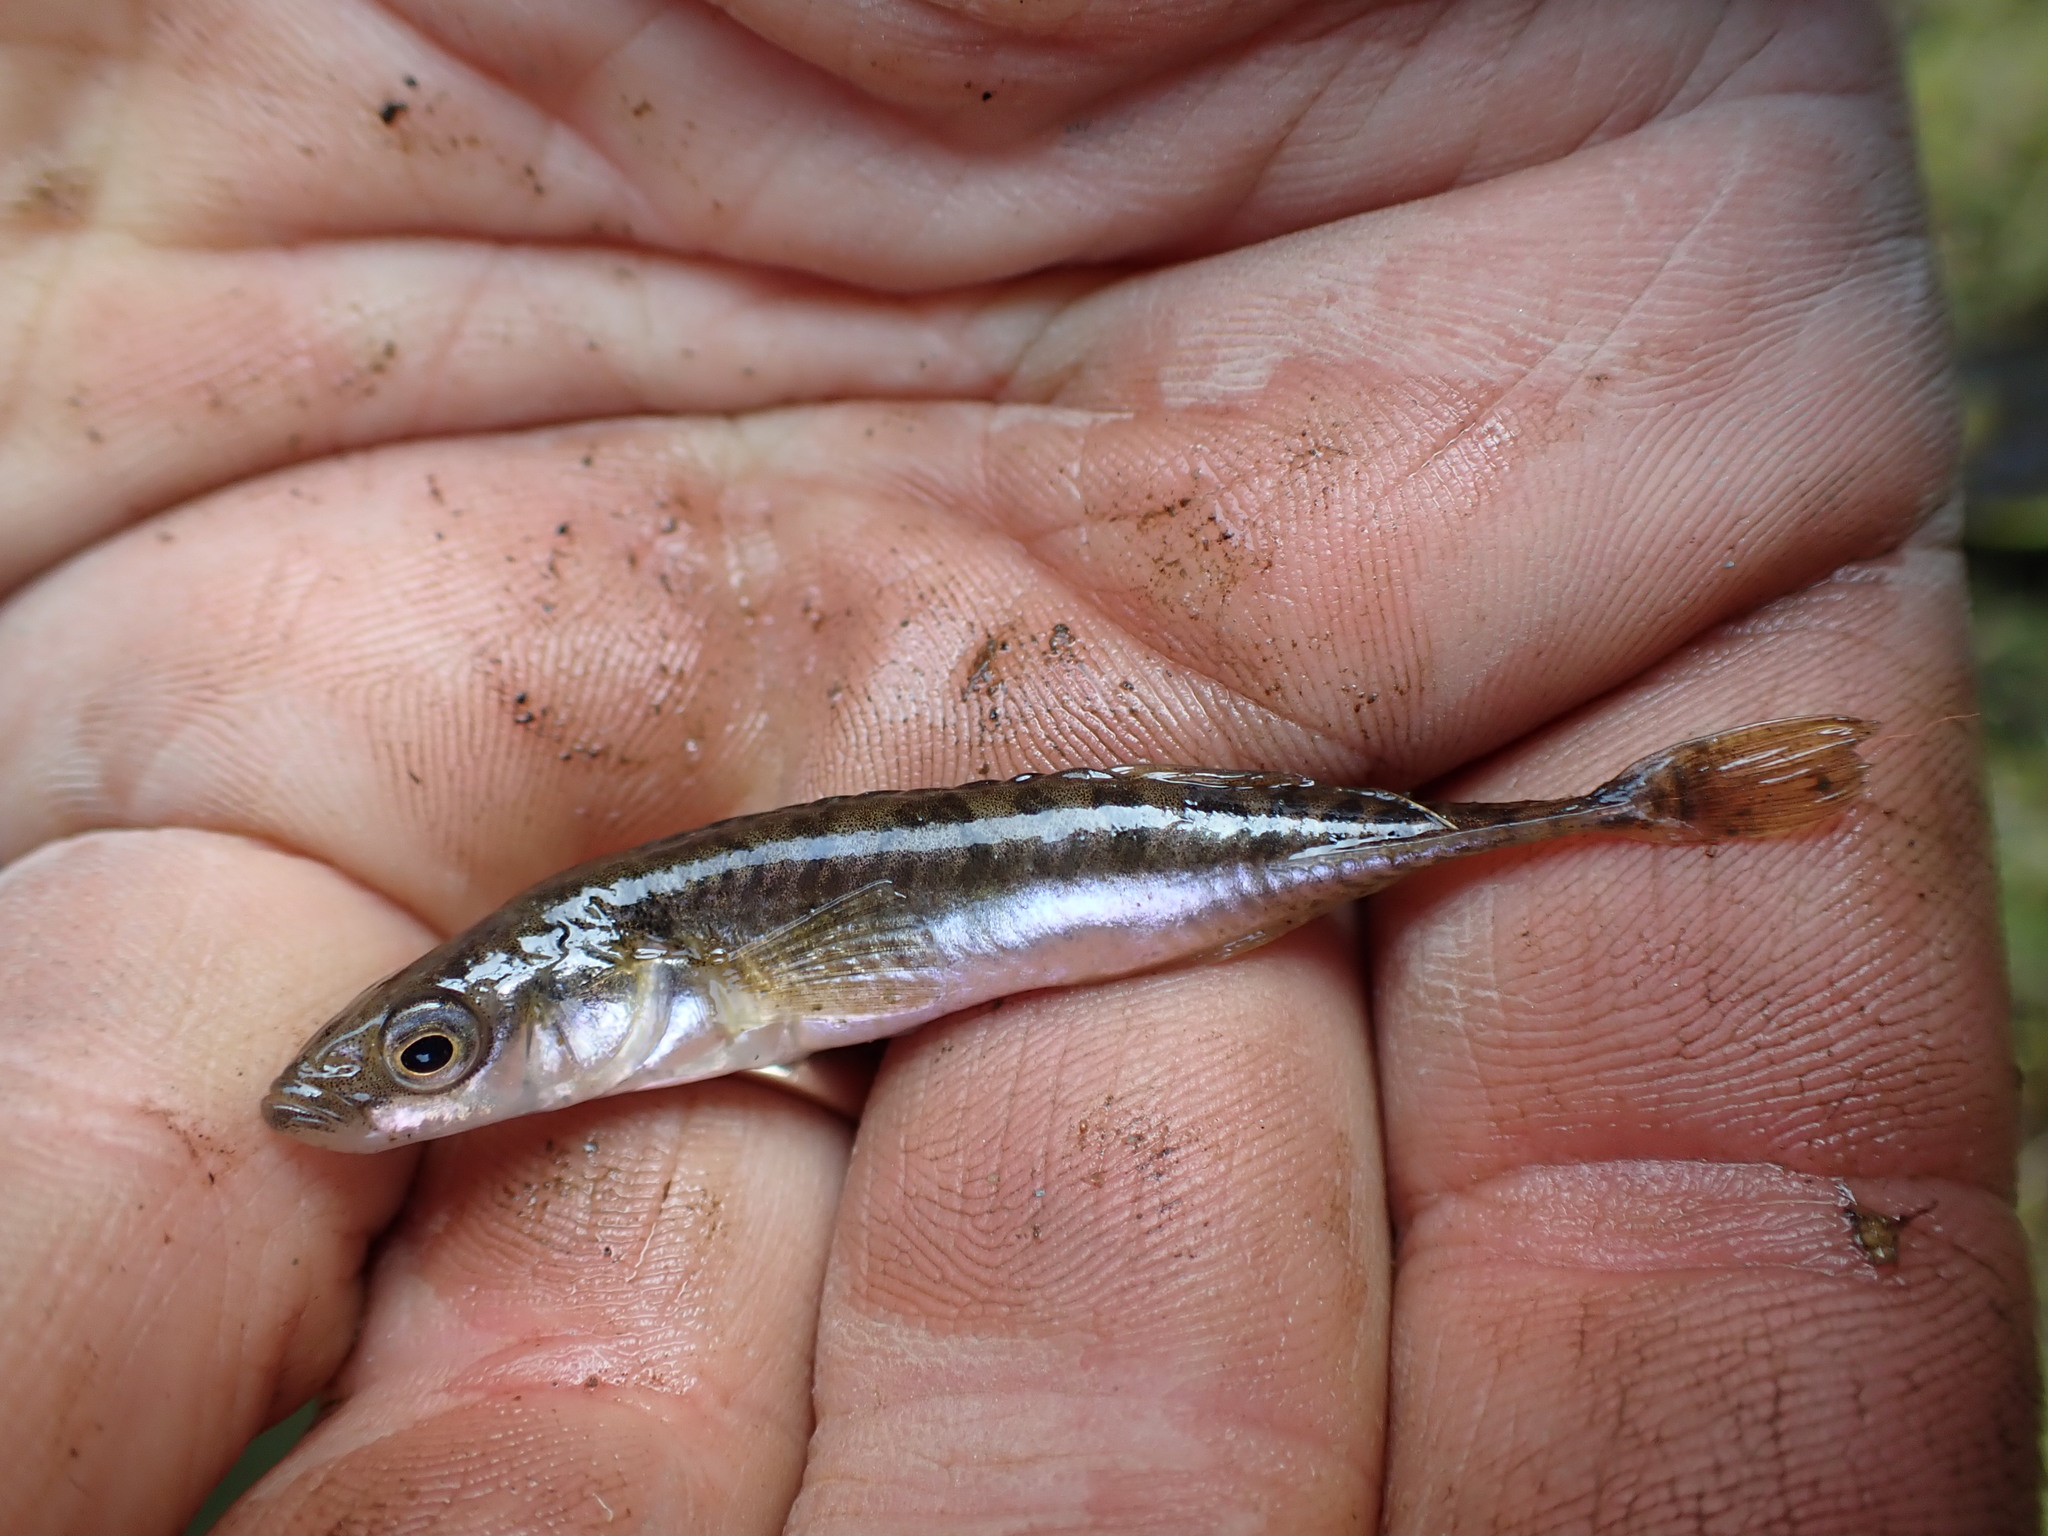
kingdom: Animalia
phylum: Chordata
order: Gasterosteiformes
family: Gasterosteidae
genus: Pungitius
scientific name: Pungitius pungitius
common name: Nine-spined stickleback
